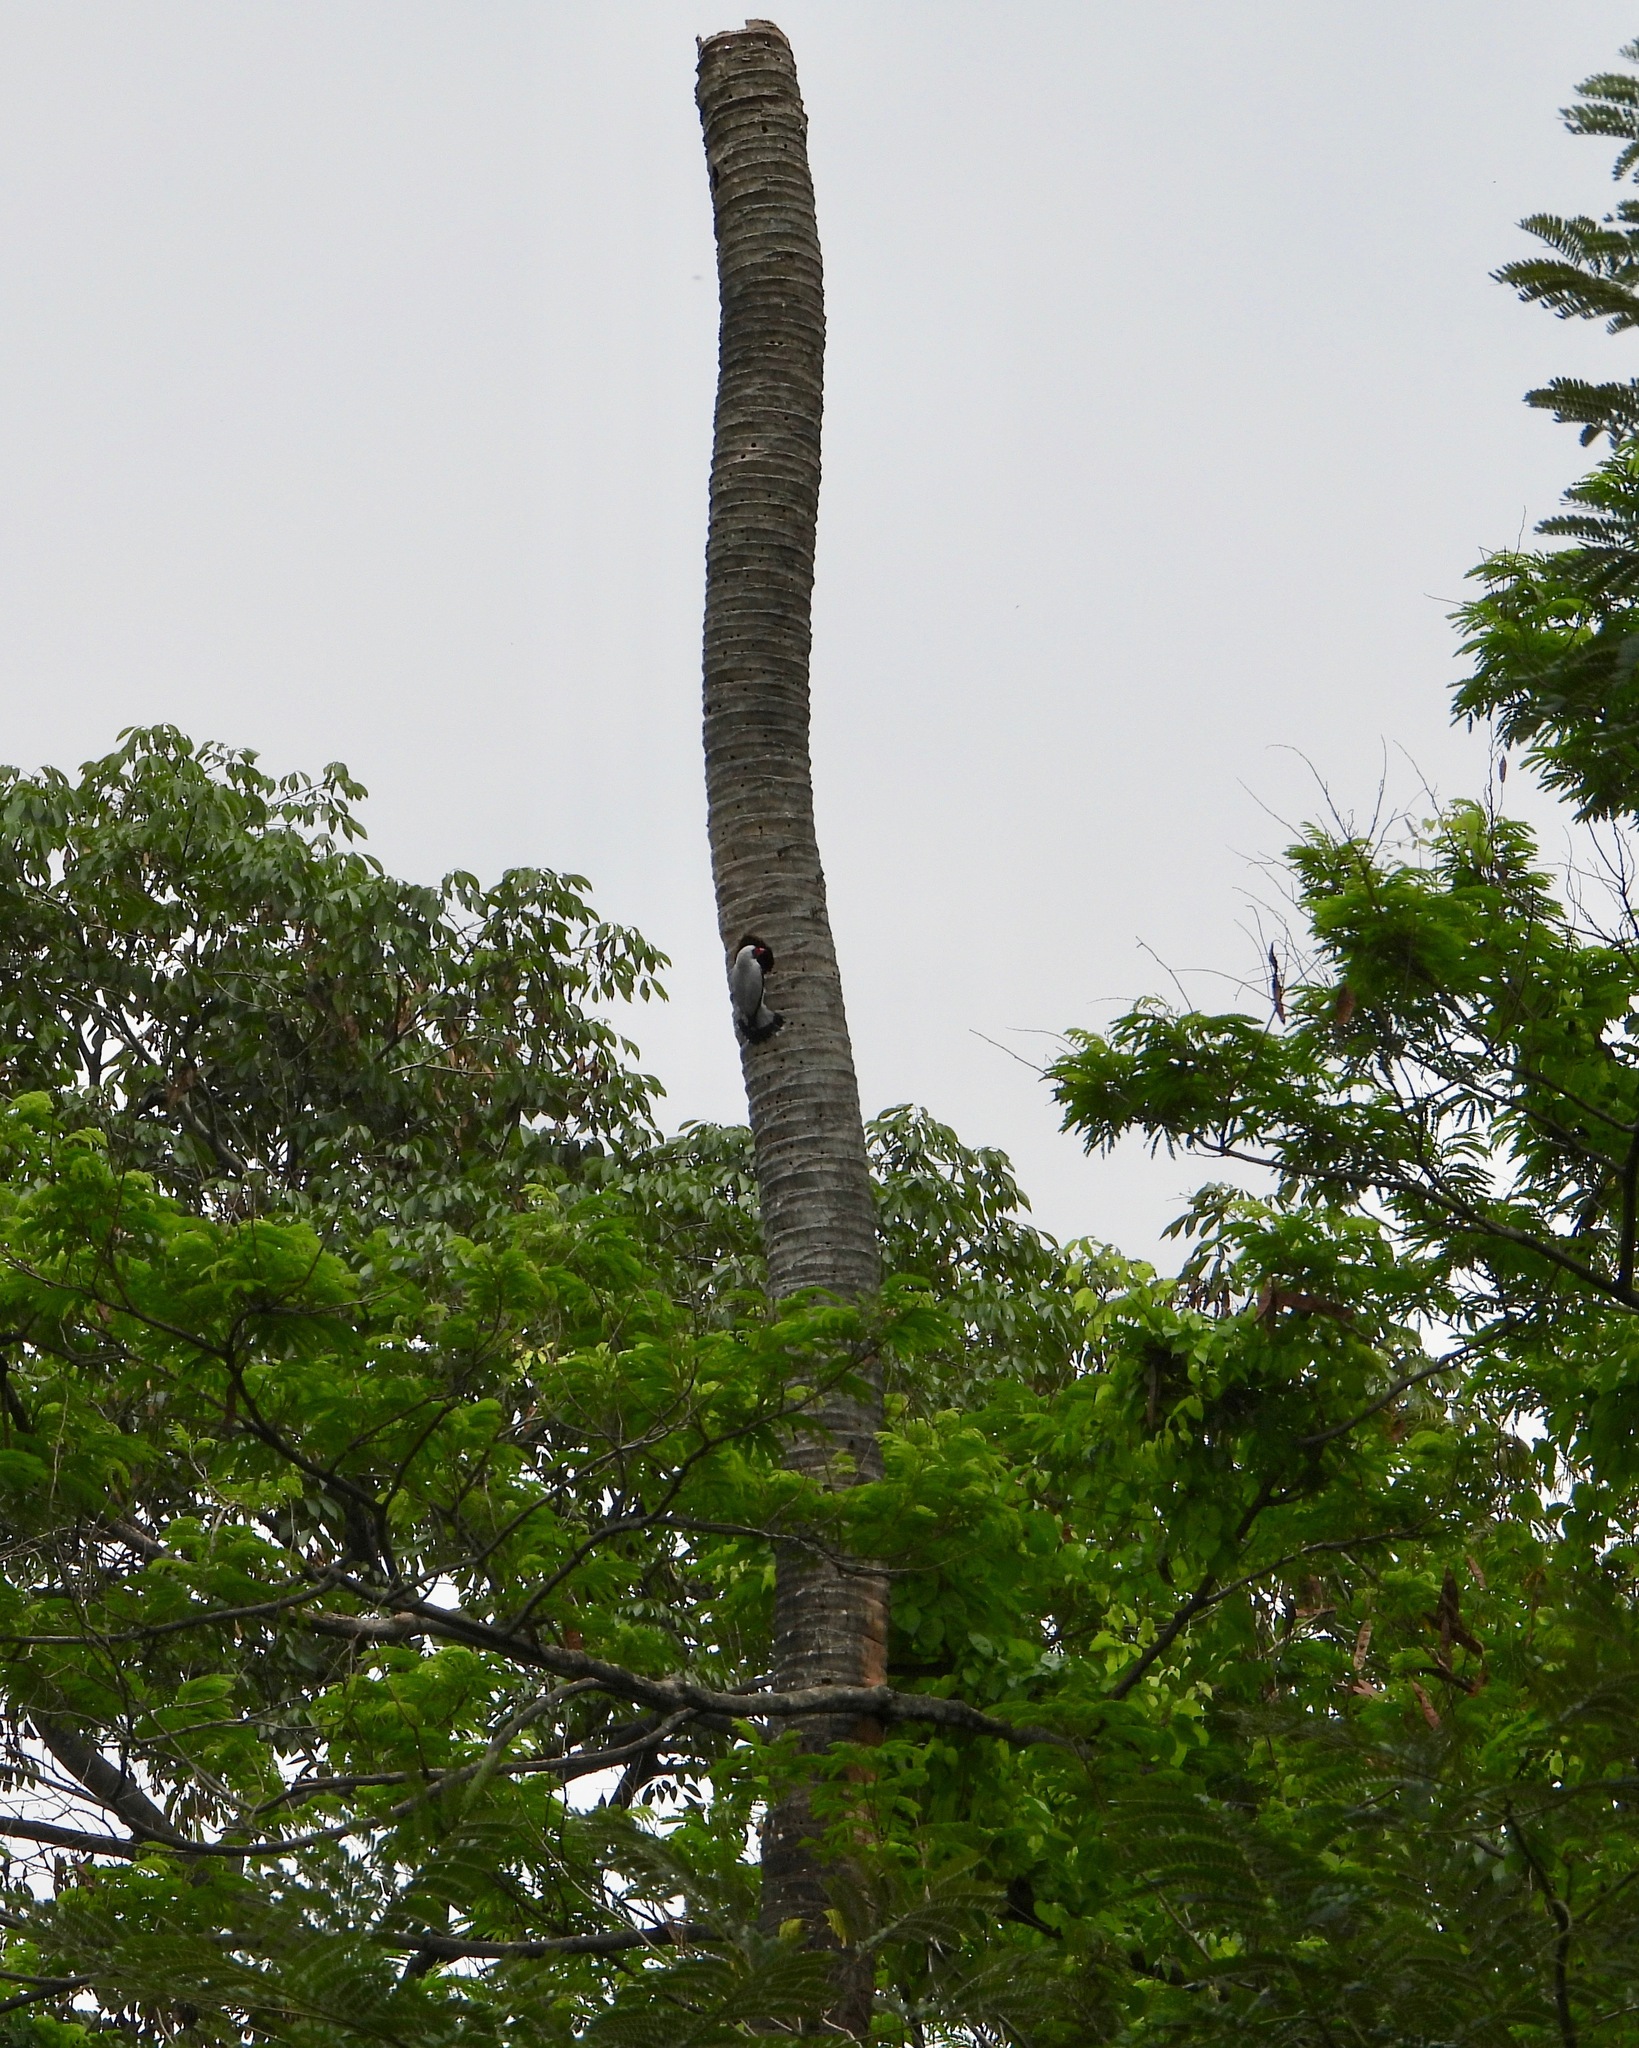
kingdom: Animalia
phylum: Chordata
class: Aves
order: Passeriformes
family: Cotingidae
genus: Tityra
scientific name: Tityra semifasciata
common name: Masked tityra
